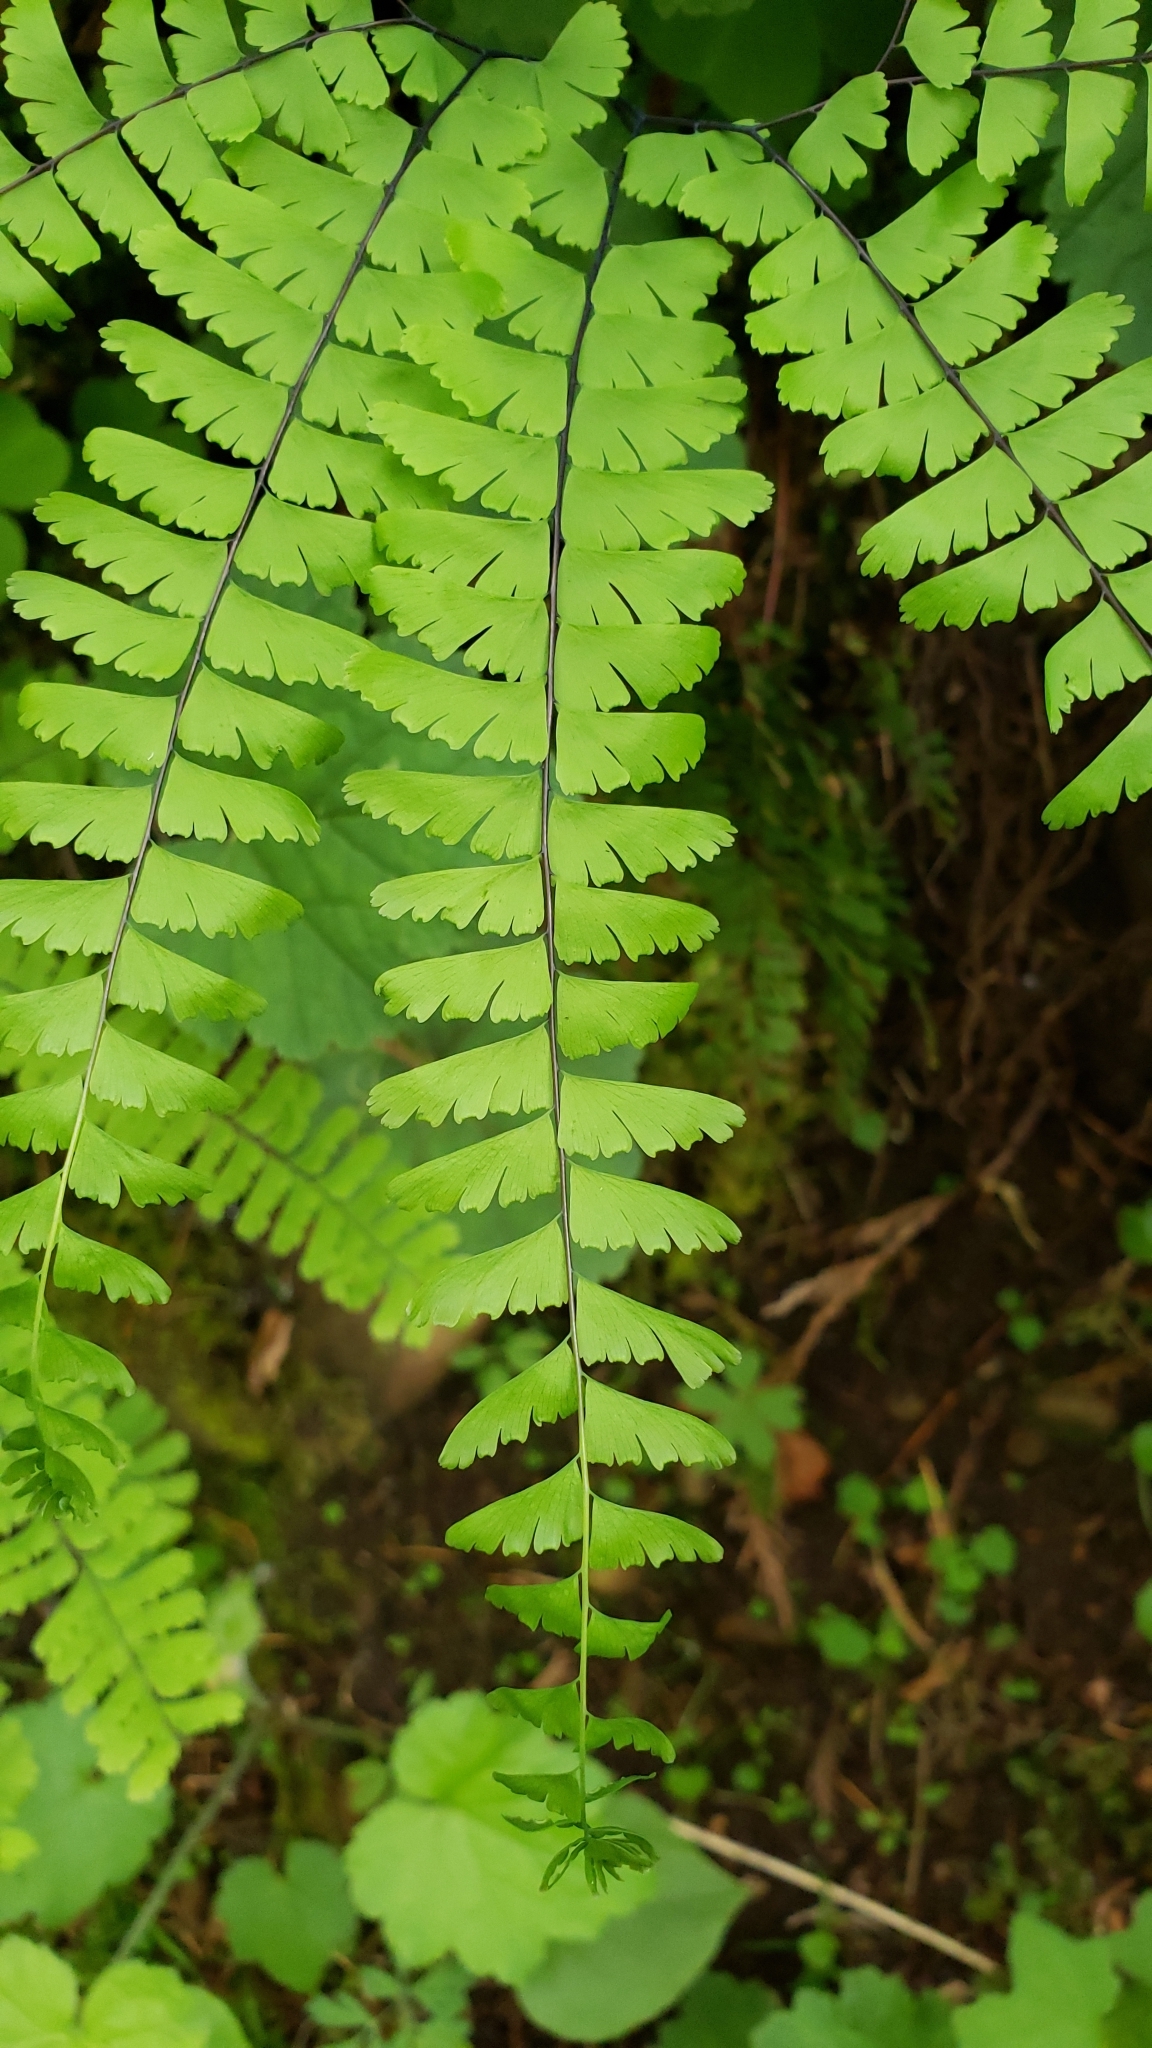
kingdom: Plantae
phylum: Tracheophyta
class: Polypodiopsida
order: Polypodiales
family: Pteridaceae
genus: Adiantum
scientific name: Adiantum aleuticum
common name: Aleutian maidenhair fern
